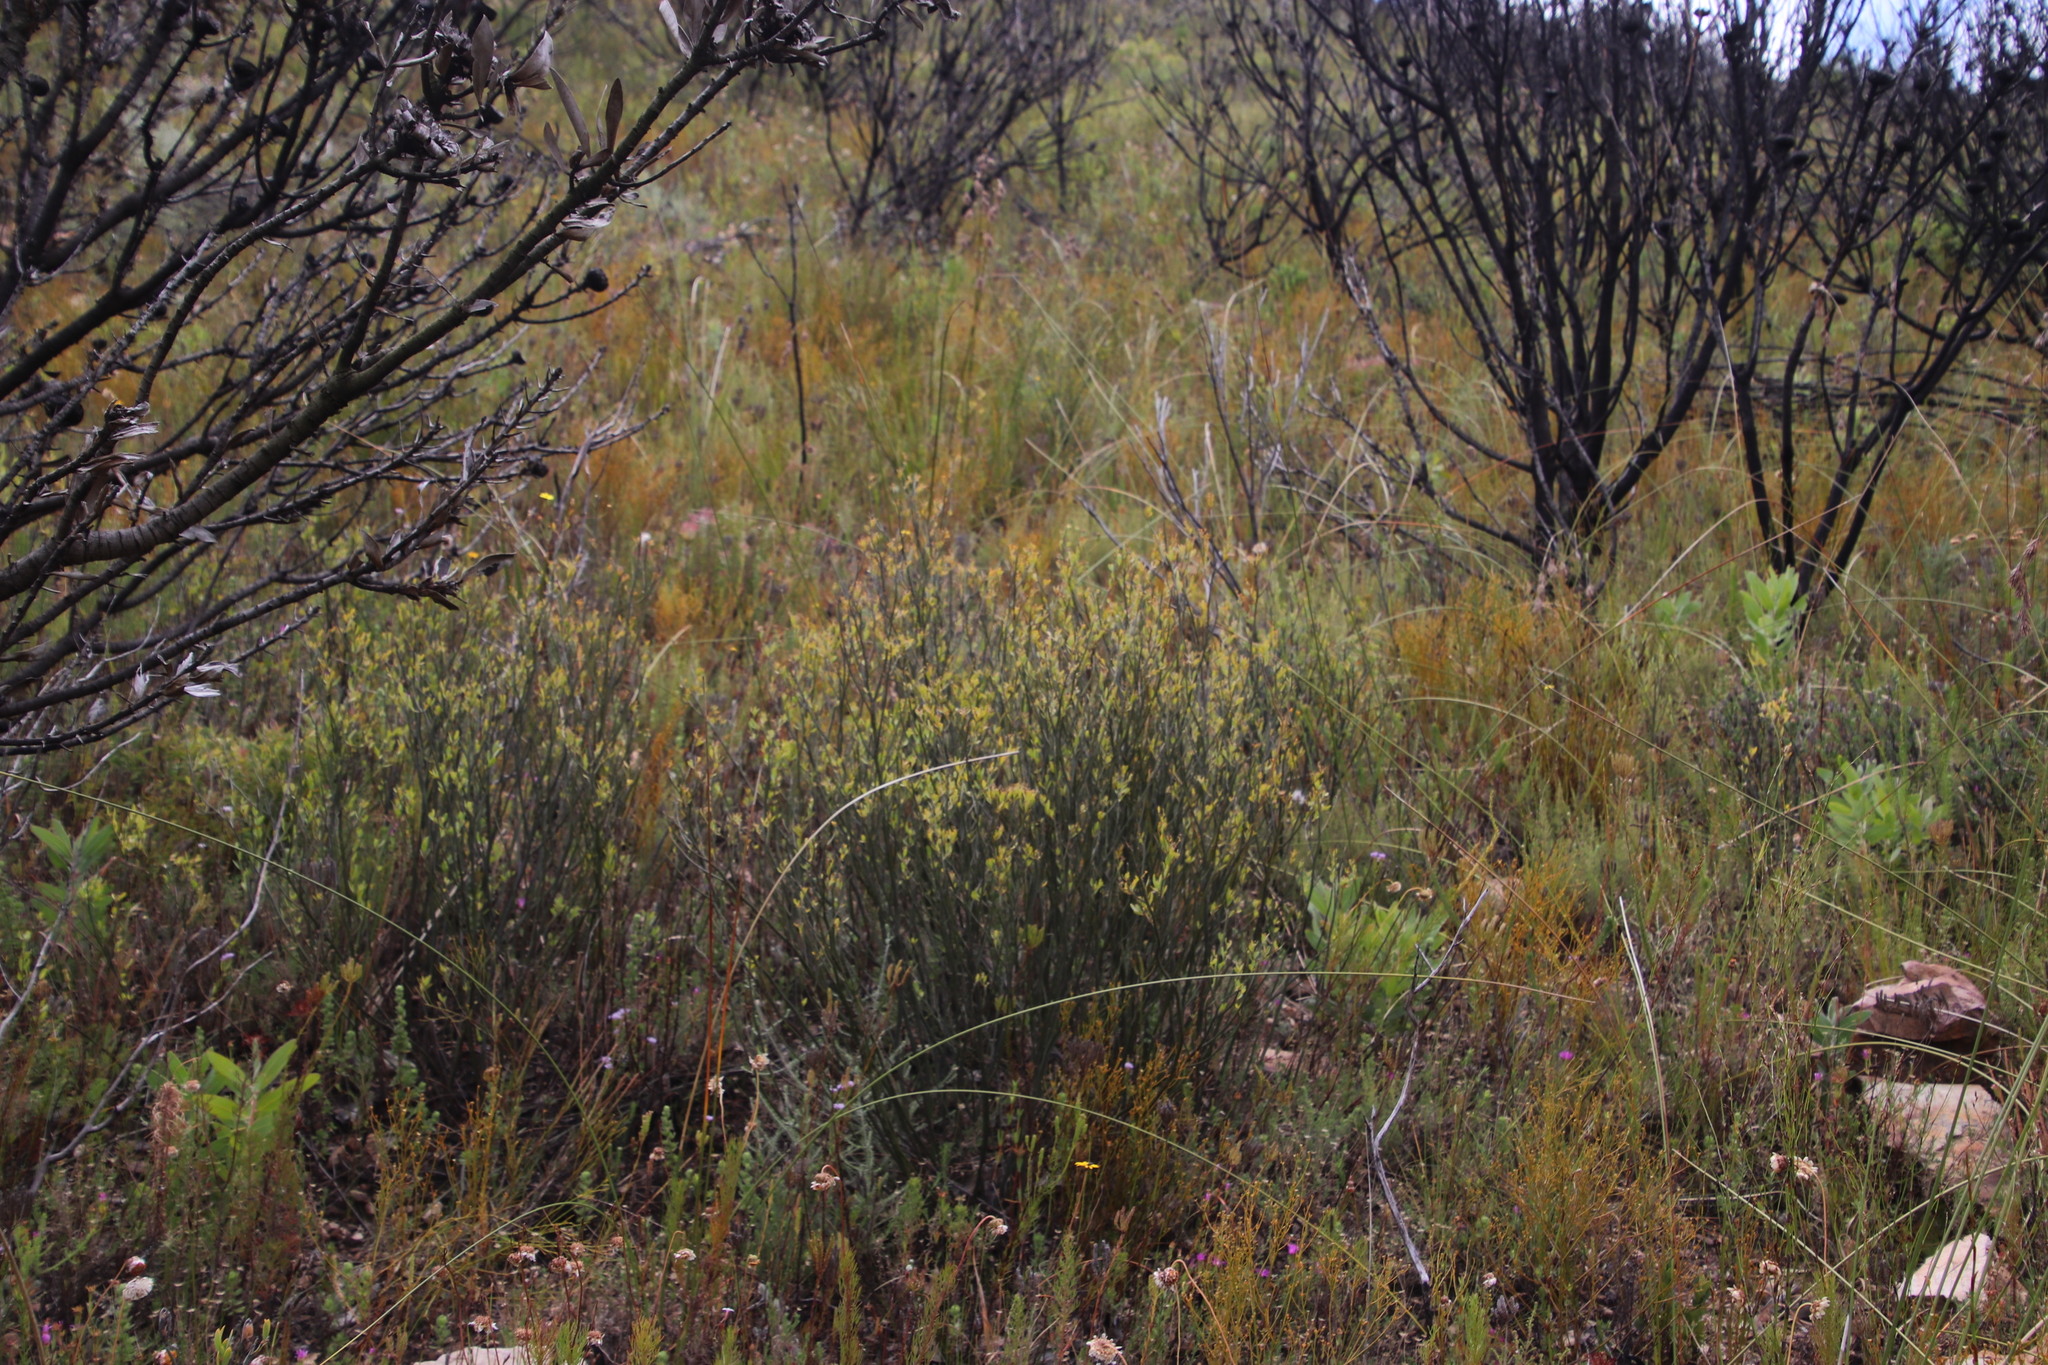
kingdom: Plantae
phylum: Tracheophyta
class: Magnoliopsida
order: Solanales
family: Montiniaceae
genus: Montinia
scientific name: Montinia caryophyllacea
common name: Wild clove-bush
